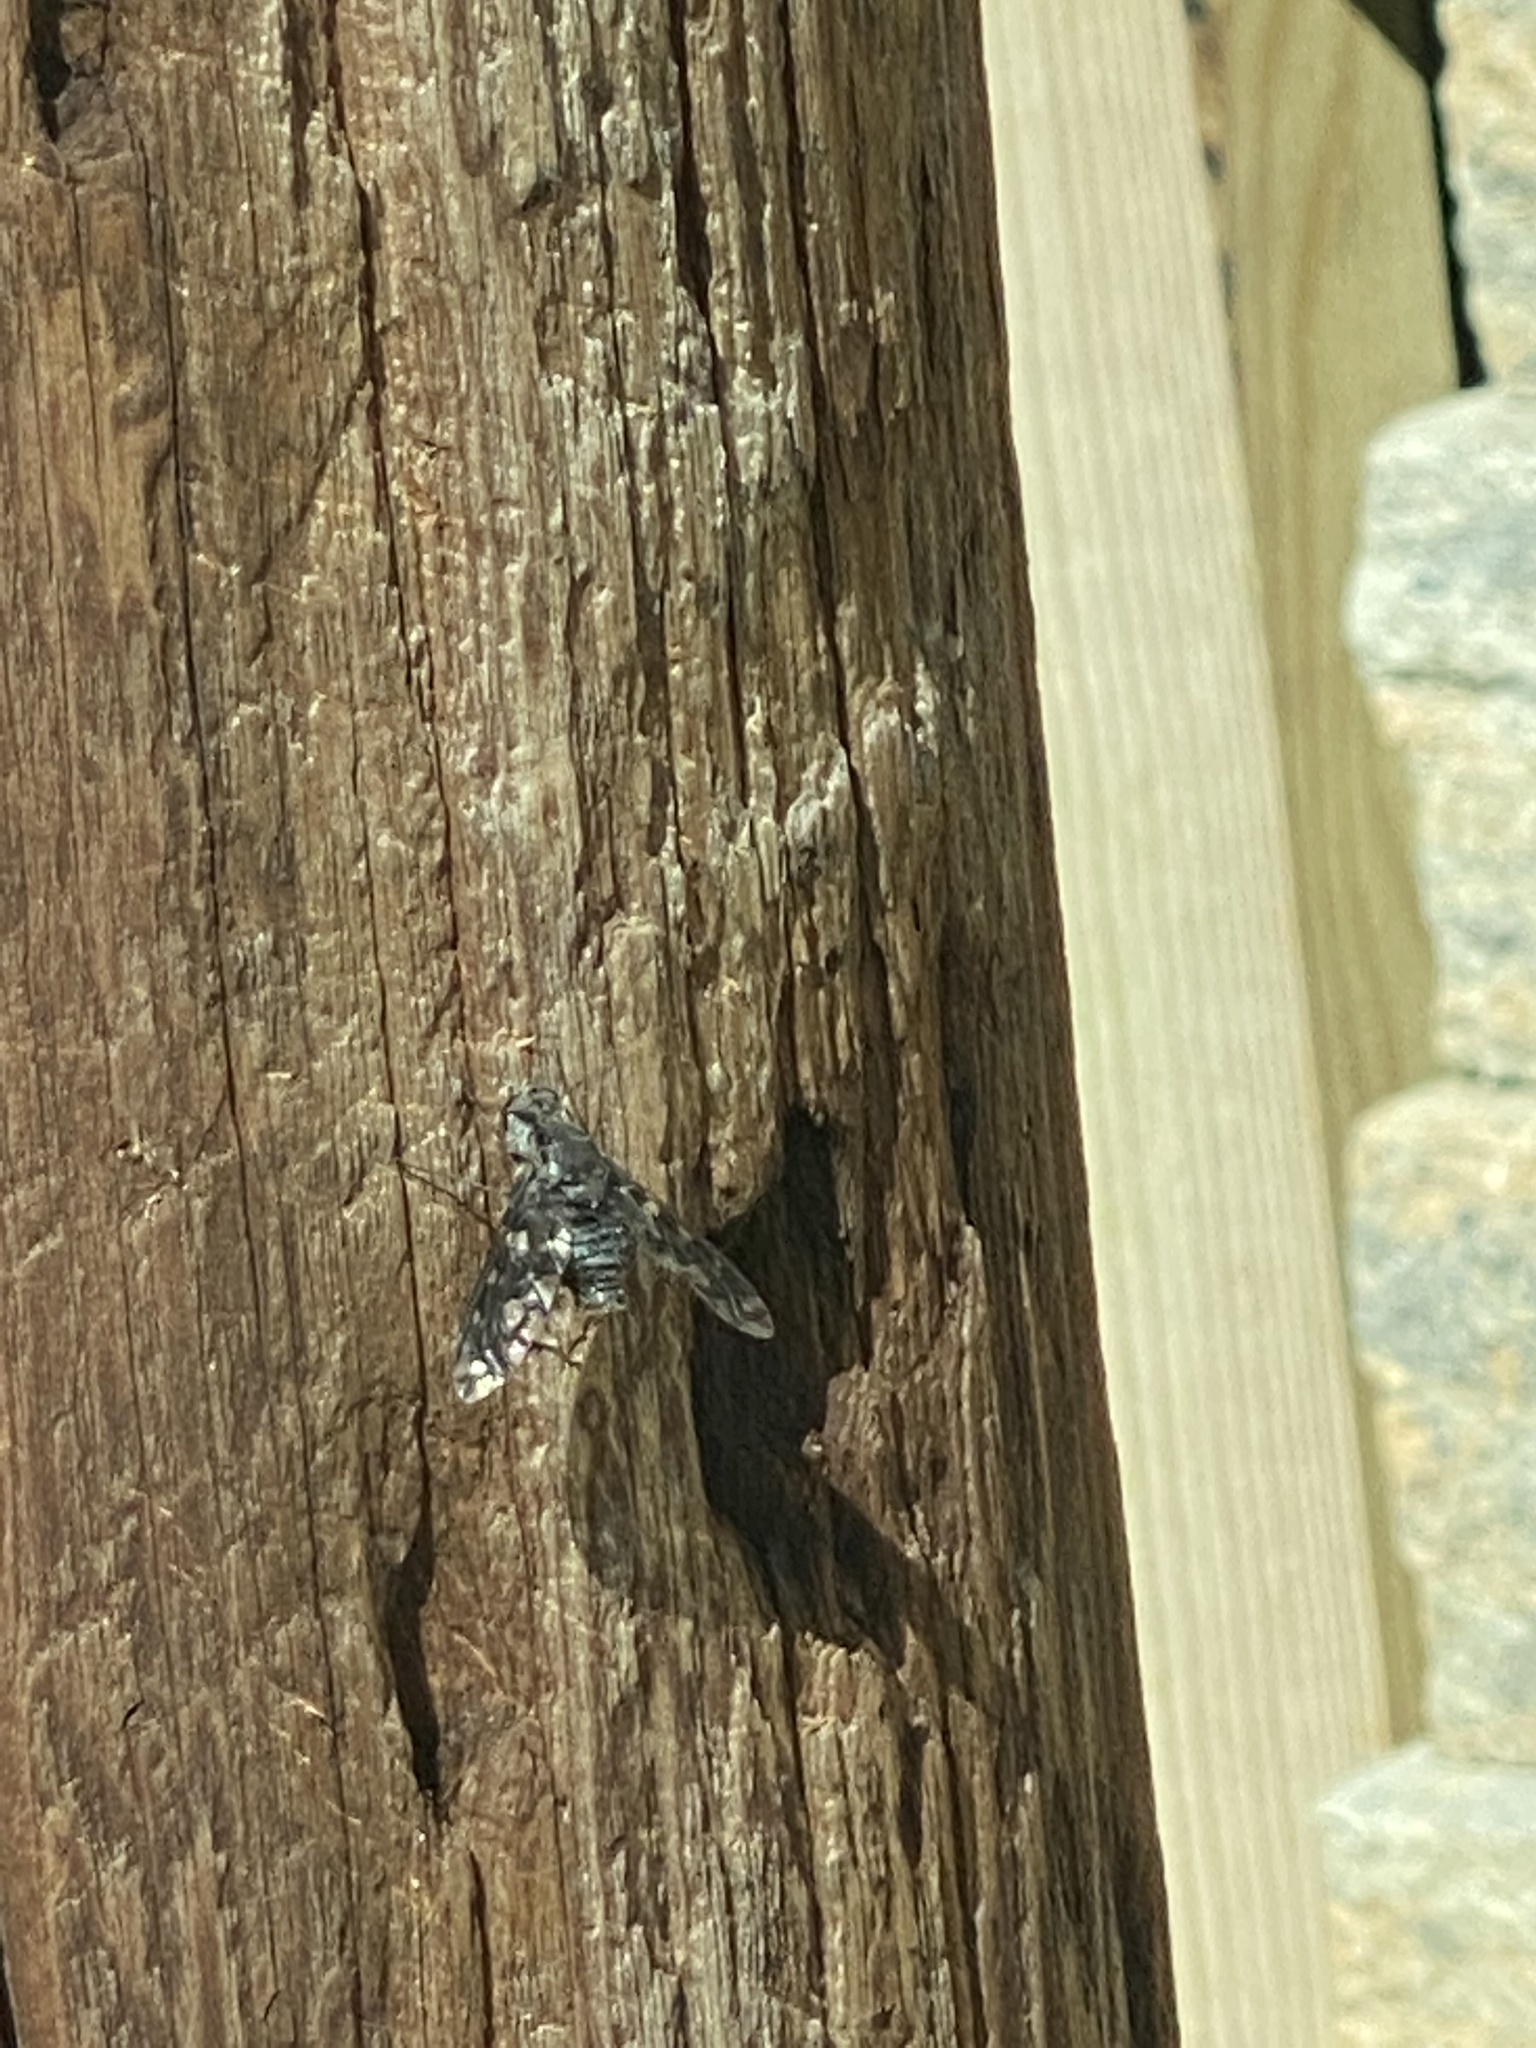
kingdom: Animalia
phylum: Arthropoda
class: Insecta
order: Diptera
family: Bombyliidae
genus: Xenox
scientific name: Xenox tigrinus
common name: Tiger bee fly
